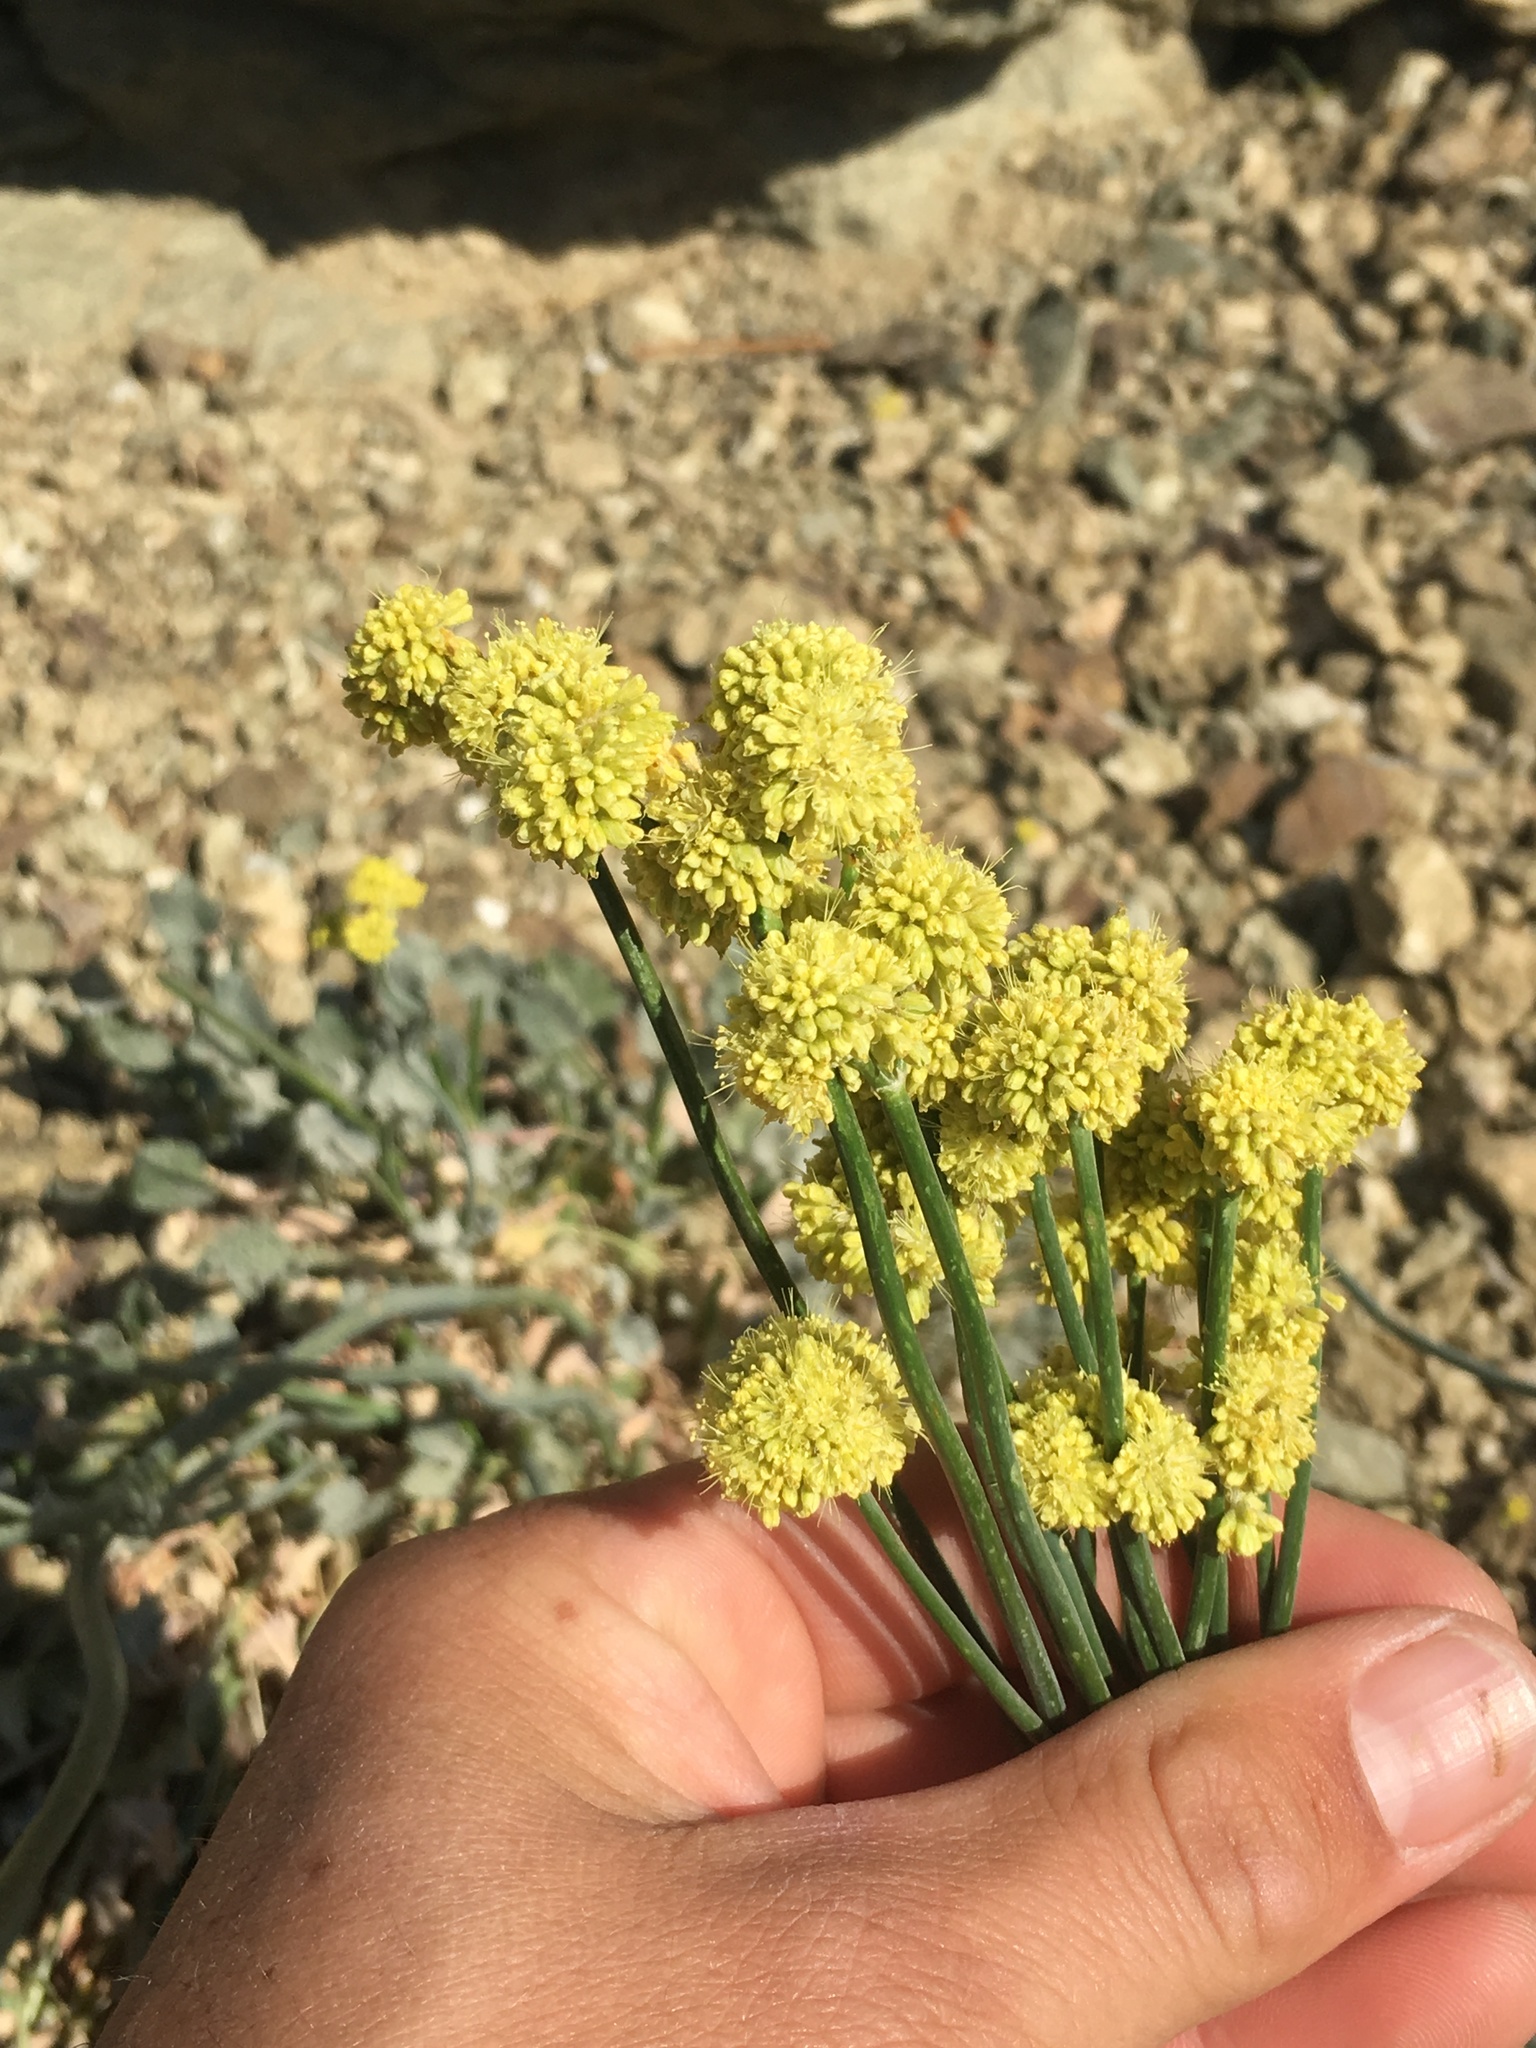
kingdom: Plantae
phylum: Tracheophyta
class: Magnoliopsida
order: Caryophyllales
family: Polygonaceae
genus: Eriogonum
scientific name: Eriogonum nudum
